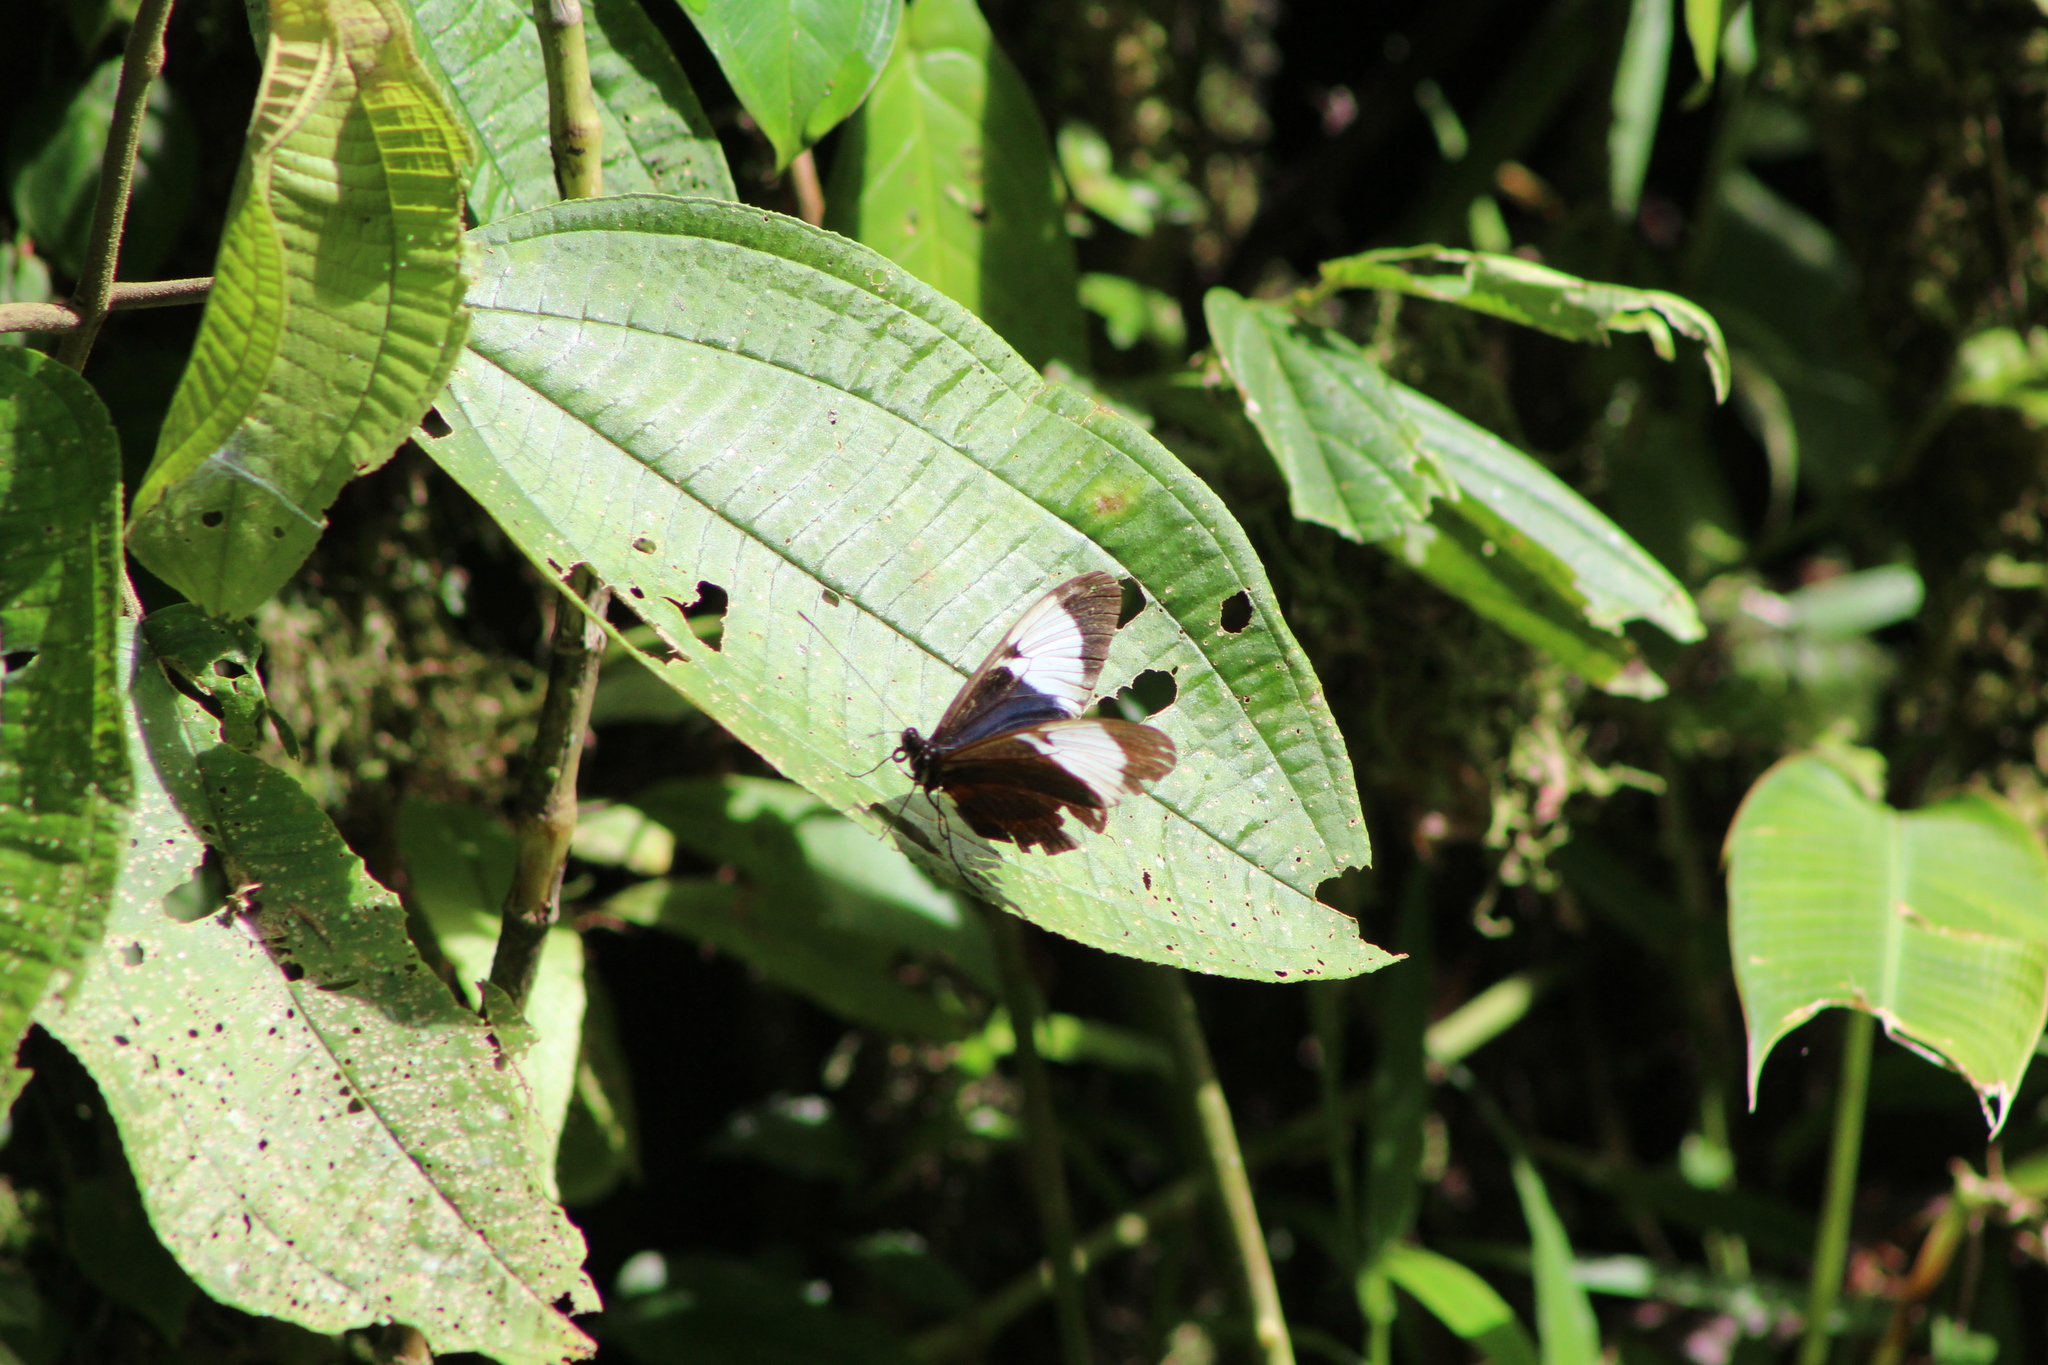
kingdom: Animalia
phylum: Arthropoda
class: Insecta
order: Lepidoptera
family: Nymphalidae
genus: Heliconius
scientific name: Heliconius cydno
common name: Cydno longwing
